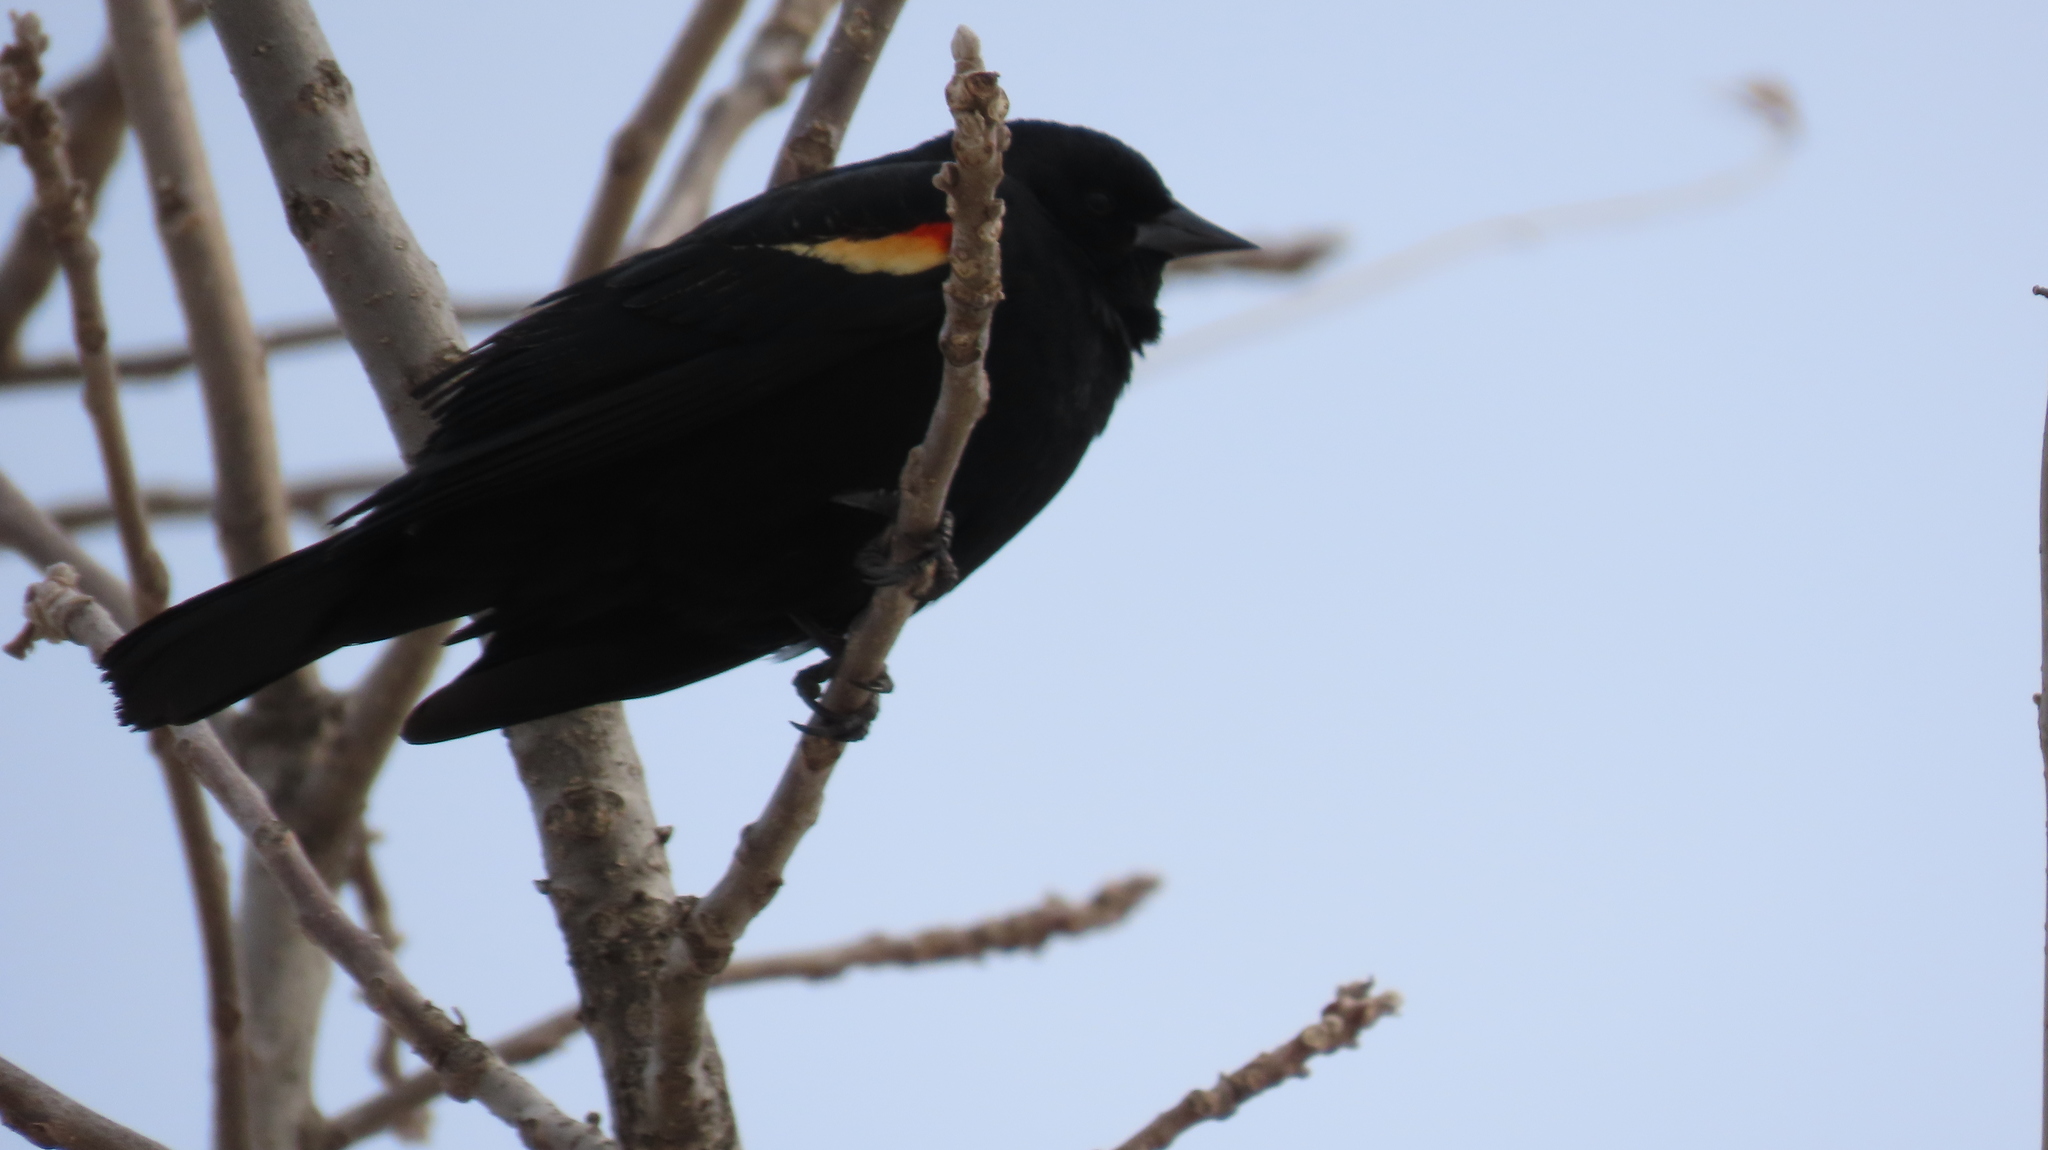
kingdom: Animalia
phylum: Chordata
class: Aves
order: Passeriformes
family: Icteridae
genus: Agelaius
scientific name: Agelaius phoeniceus
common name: Red-winged blackbird
